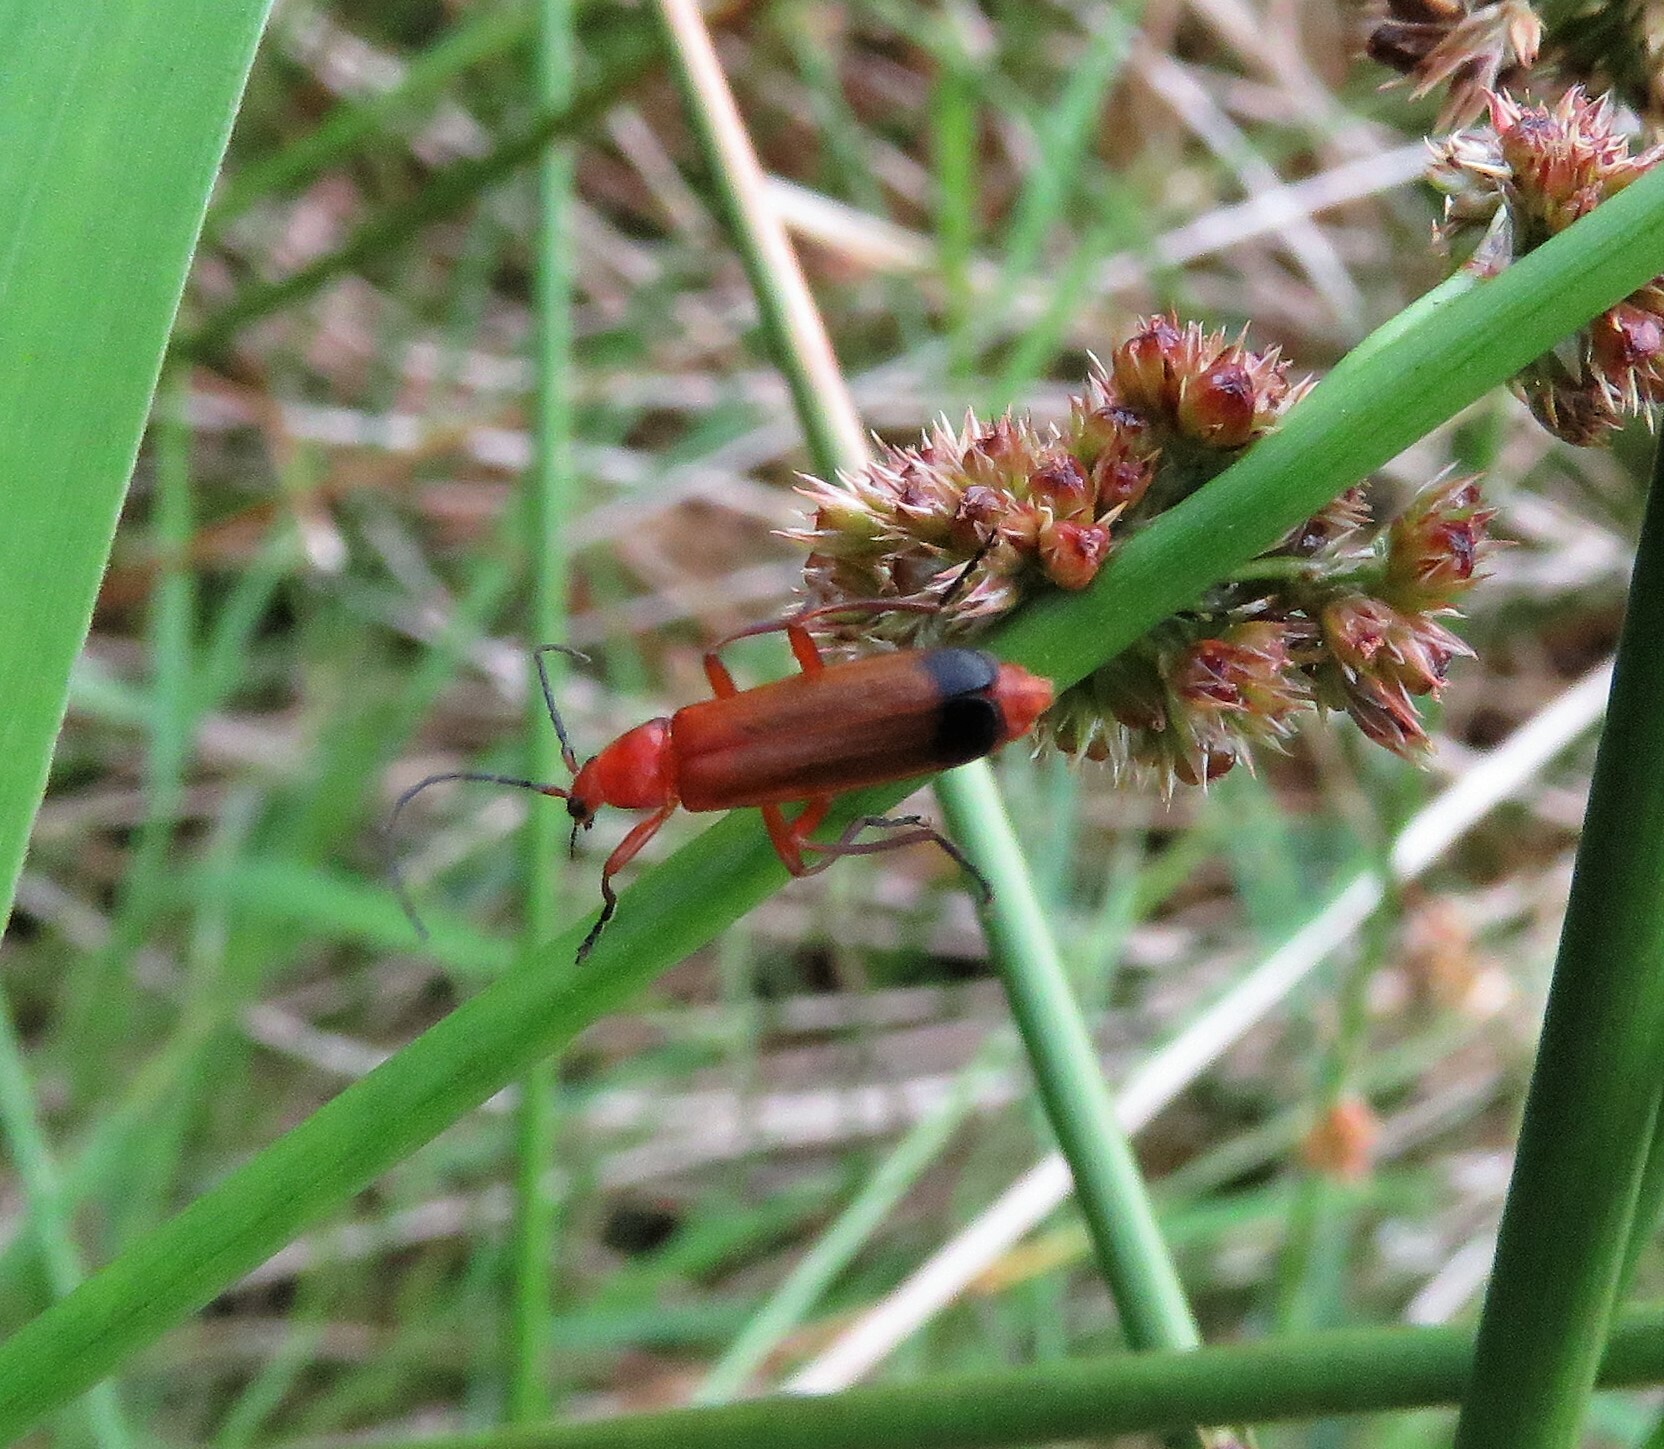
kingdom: Animalia
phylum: Arthropoda
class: Insecta
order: Coleoptera
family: Cantharidae
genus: Rhagonycha
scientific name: Rhagonycha fulva
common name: Common red soldier beetle
